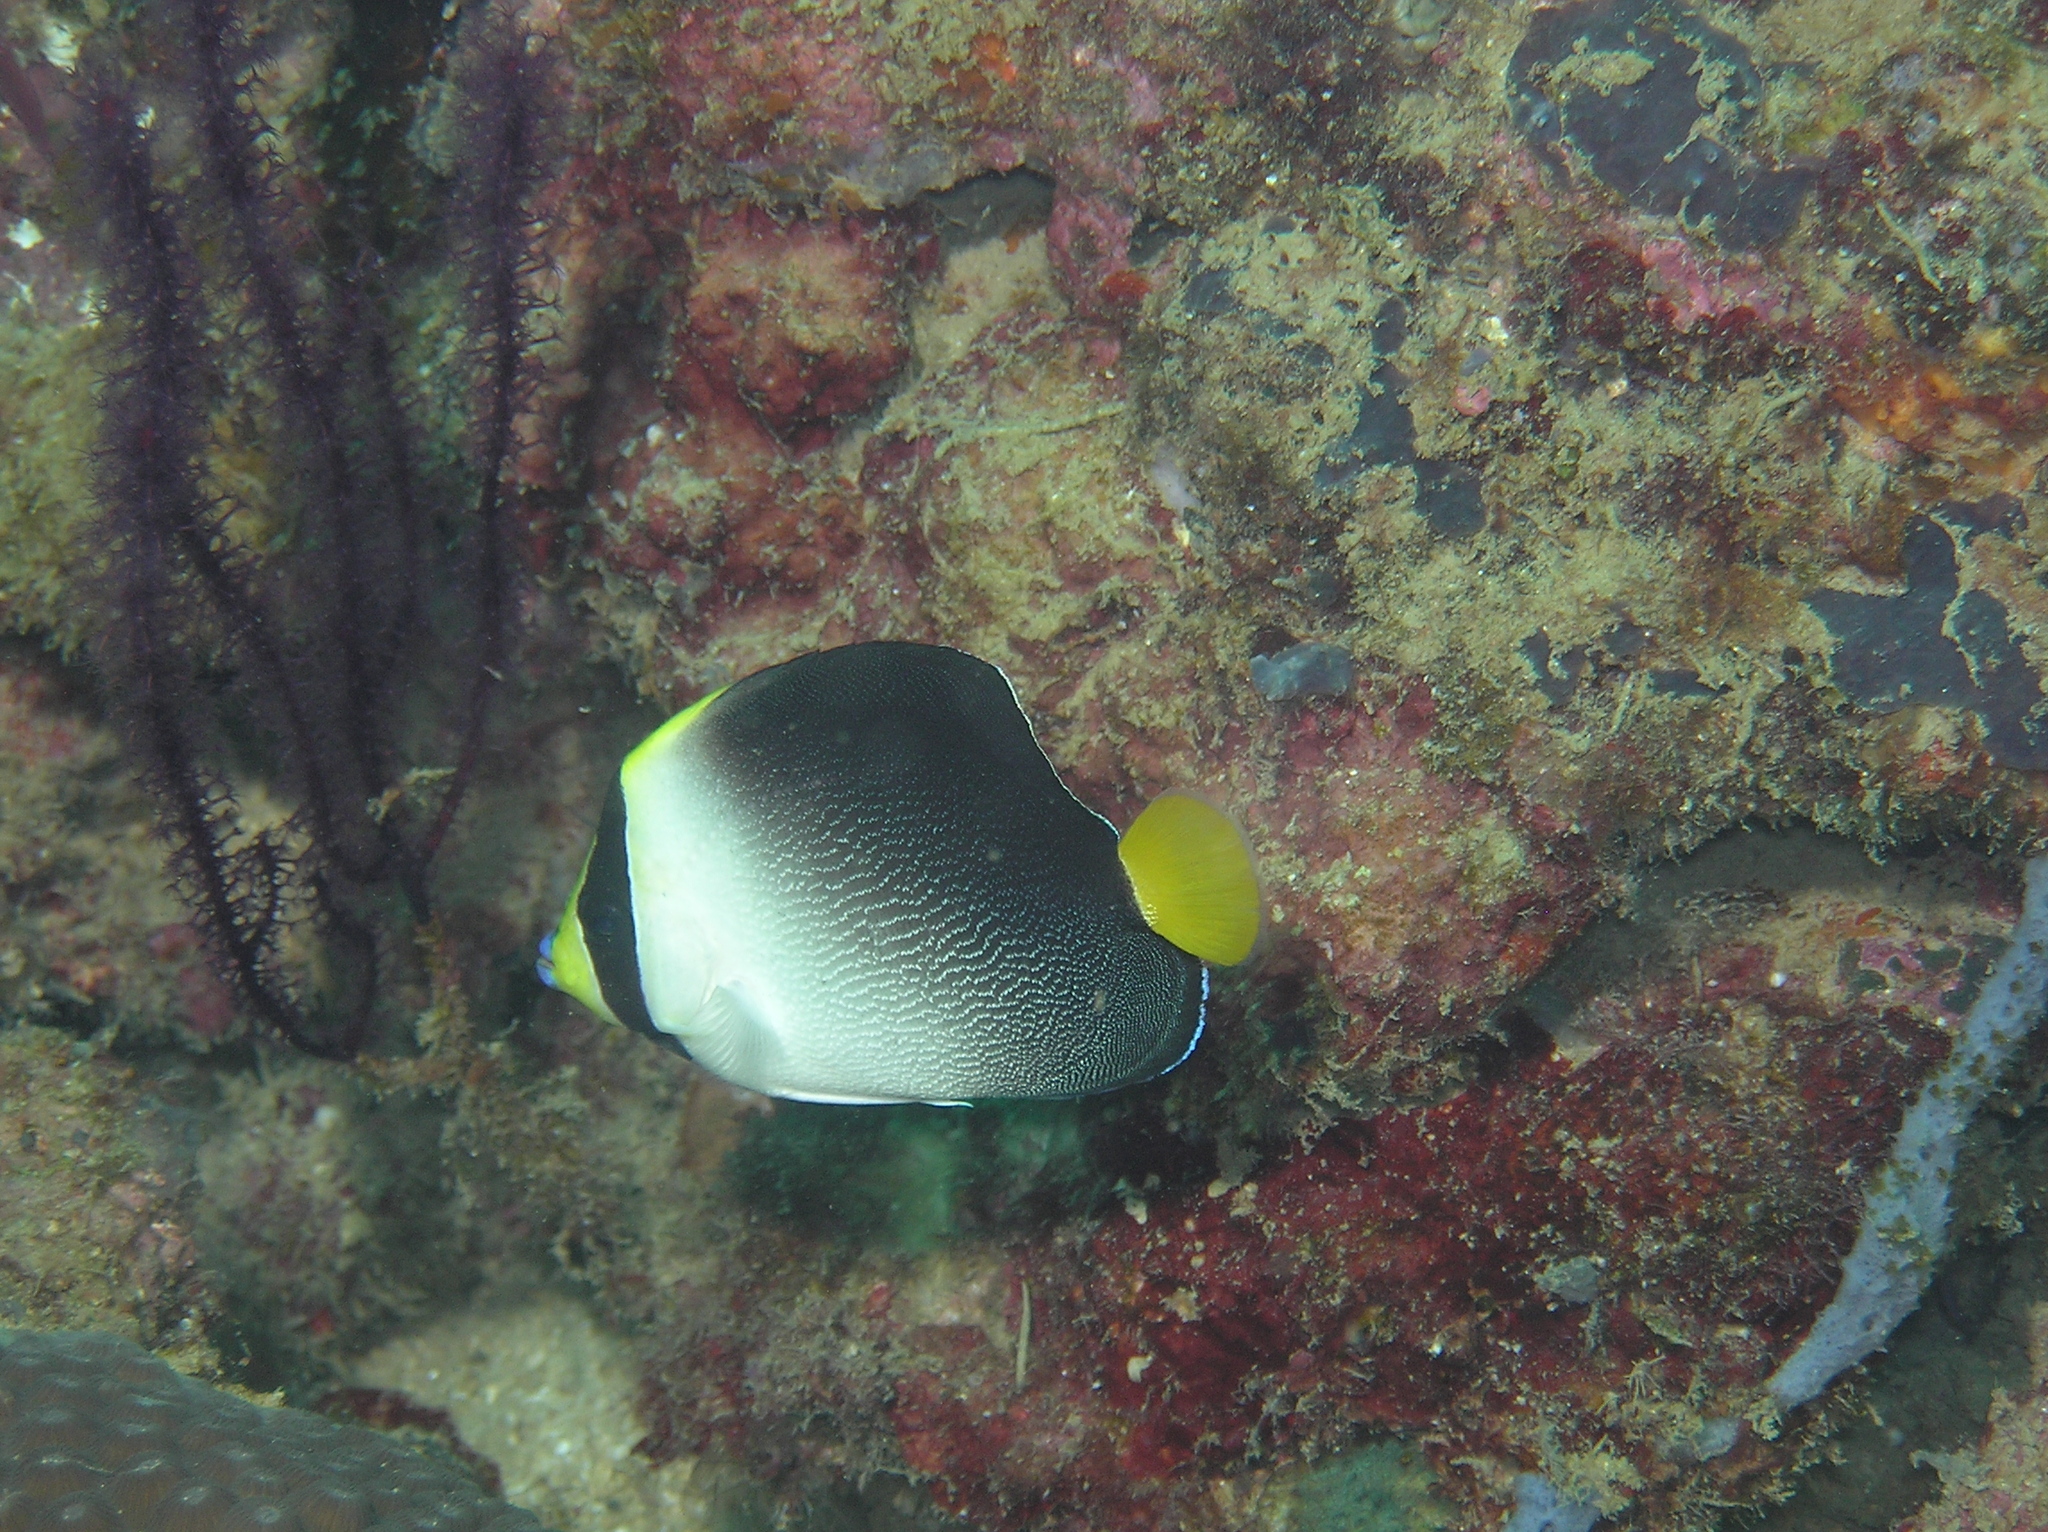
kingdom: Animalia
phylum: Chordata
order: Perciformes
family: Pomacanthidae
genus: Chaetodontoplus
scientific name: Chaetodontoplus mesoleucus
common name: Vermiculated angelfish
